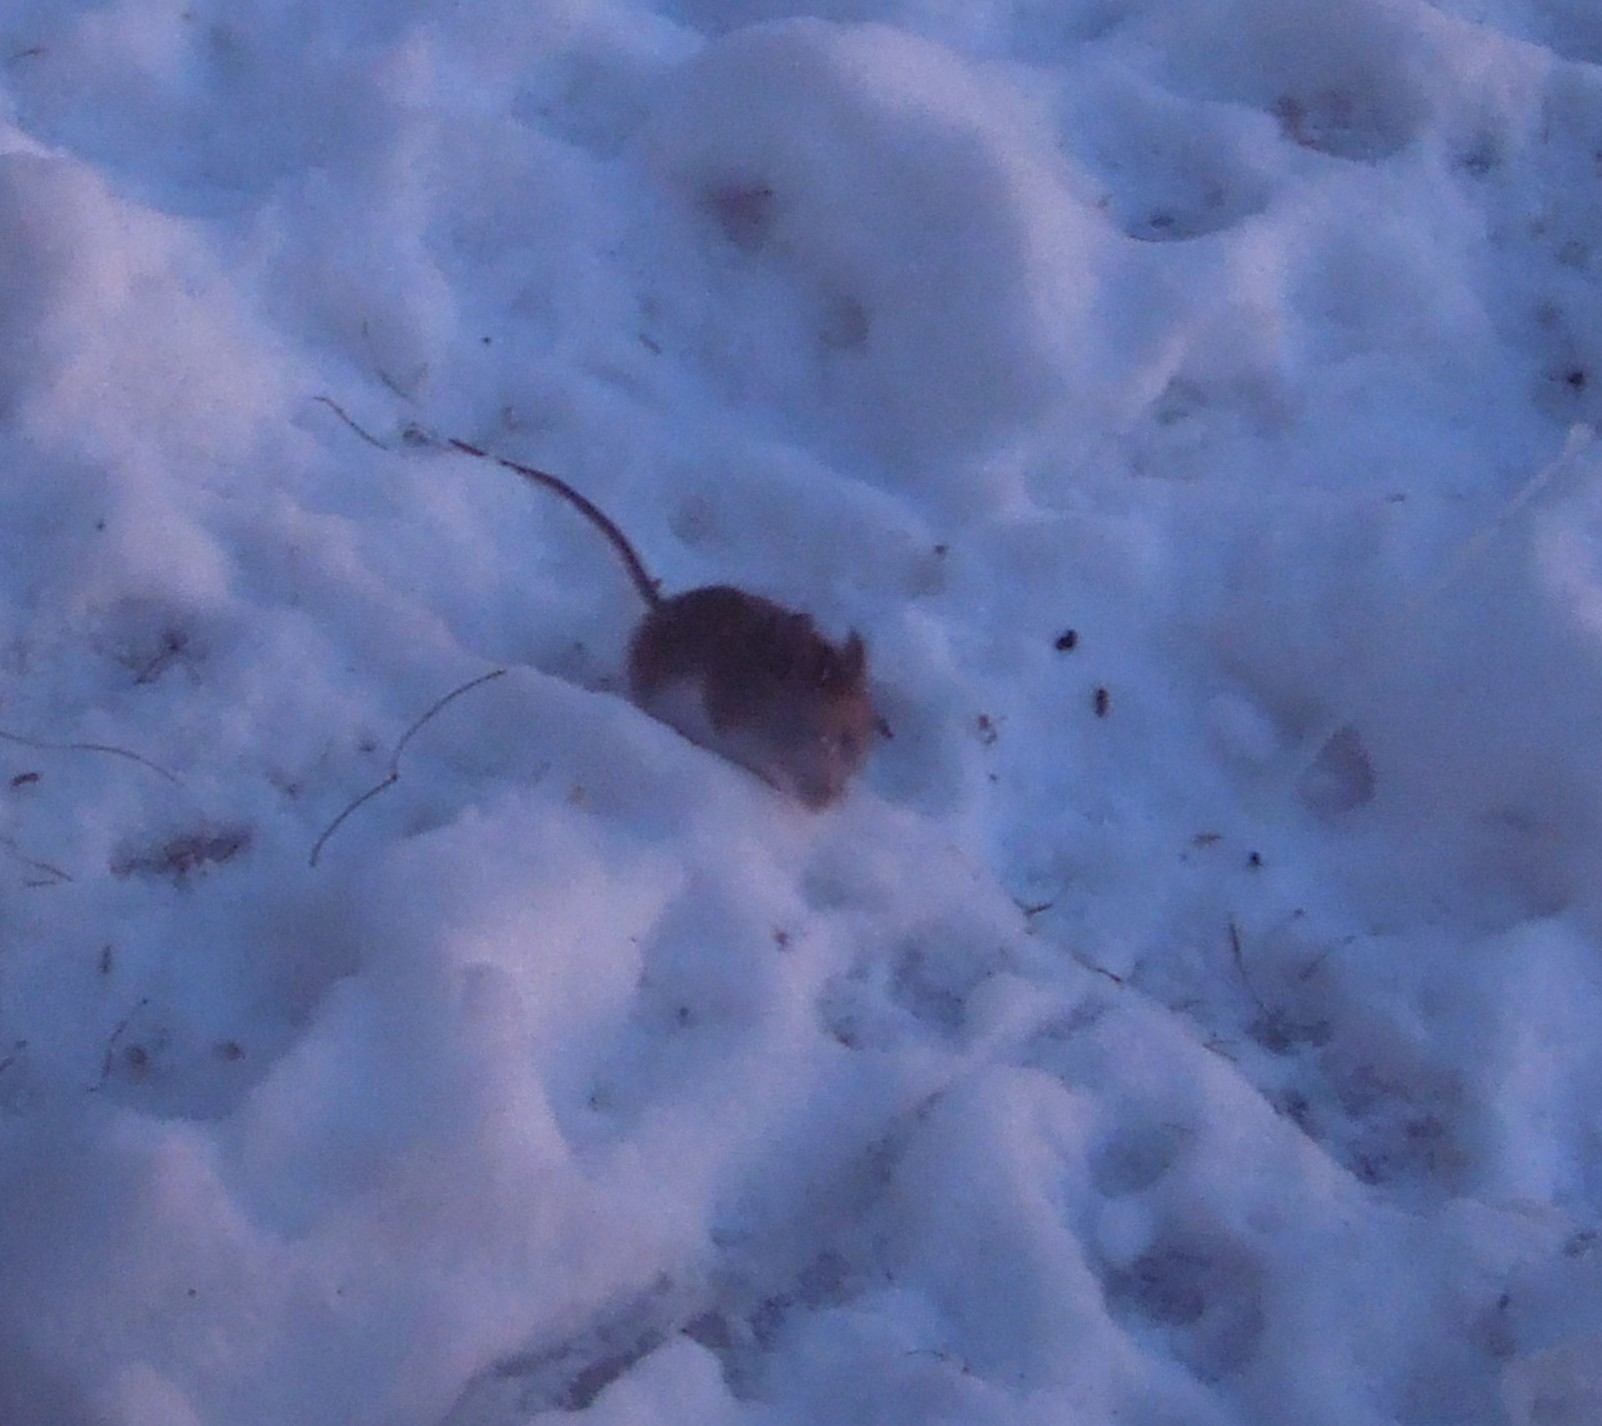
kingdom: Animalia
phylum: Chordata
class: Mammalia
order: Rodentia
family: Cricetidae
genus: Peromyscus
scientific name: Peromyscus leucopus
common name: White-footed deermouse
